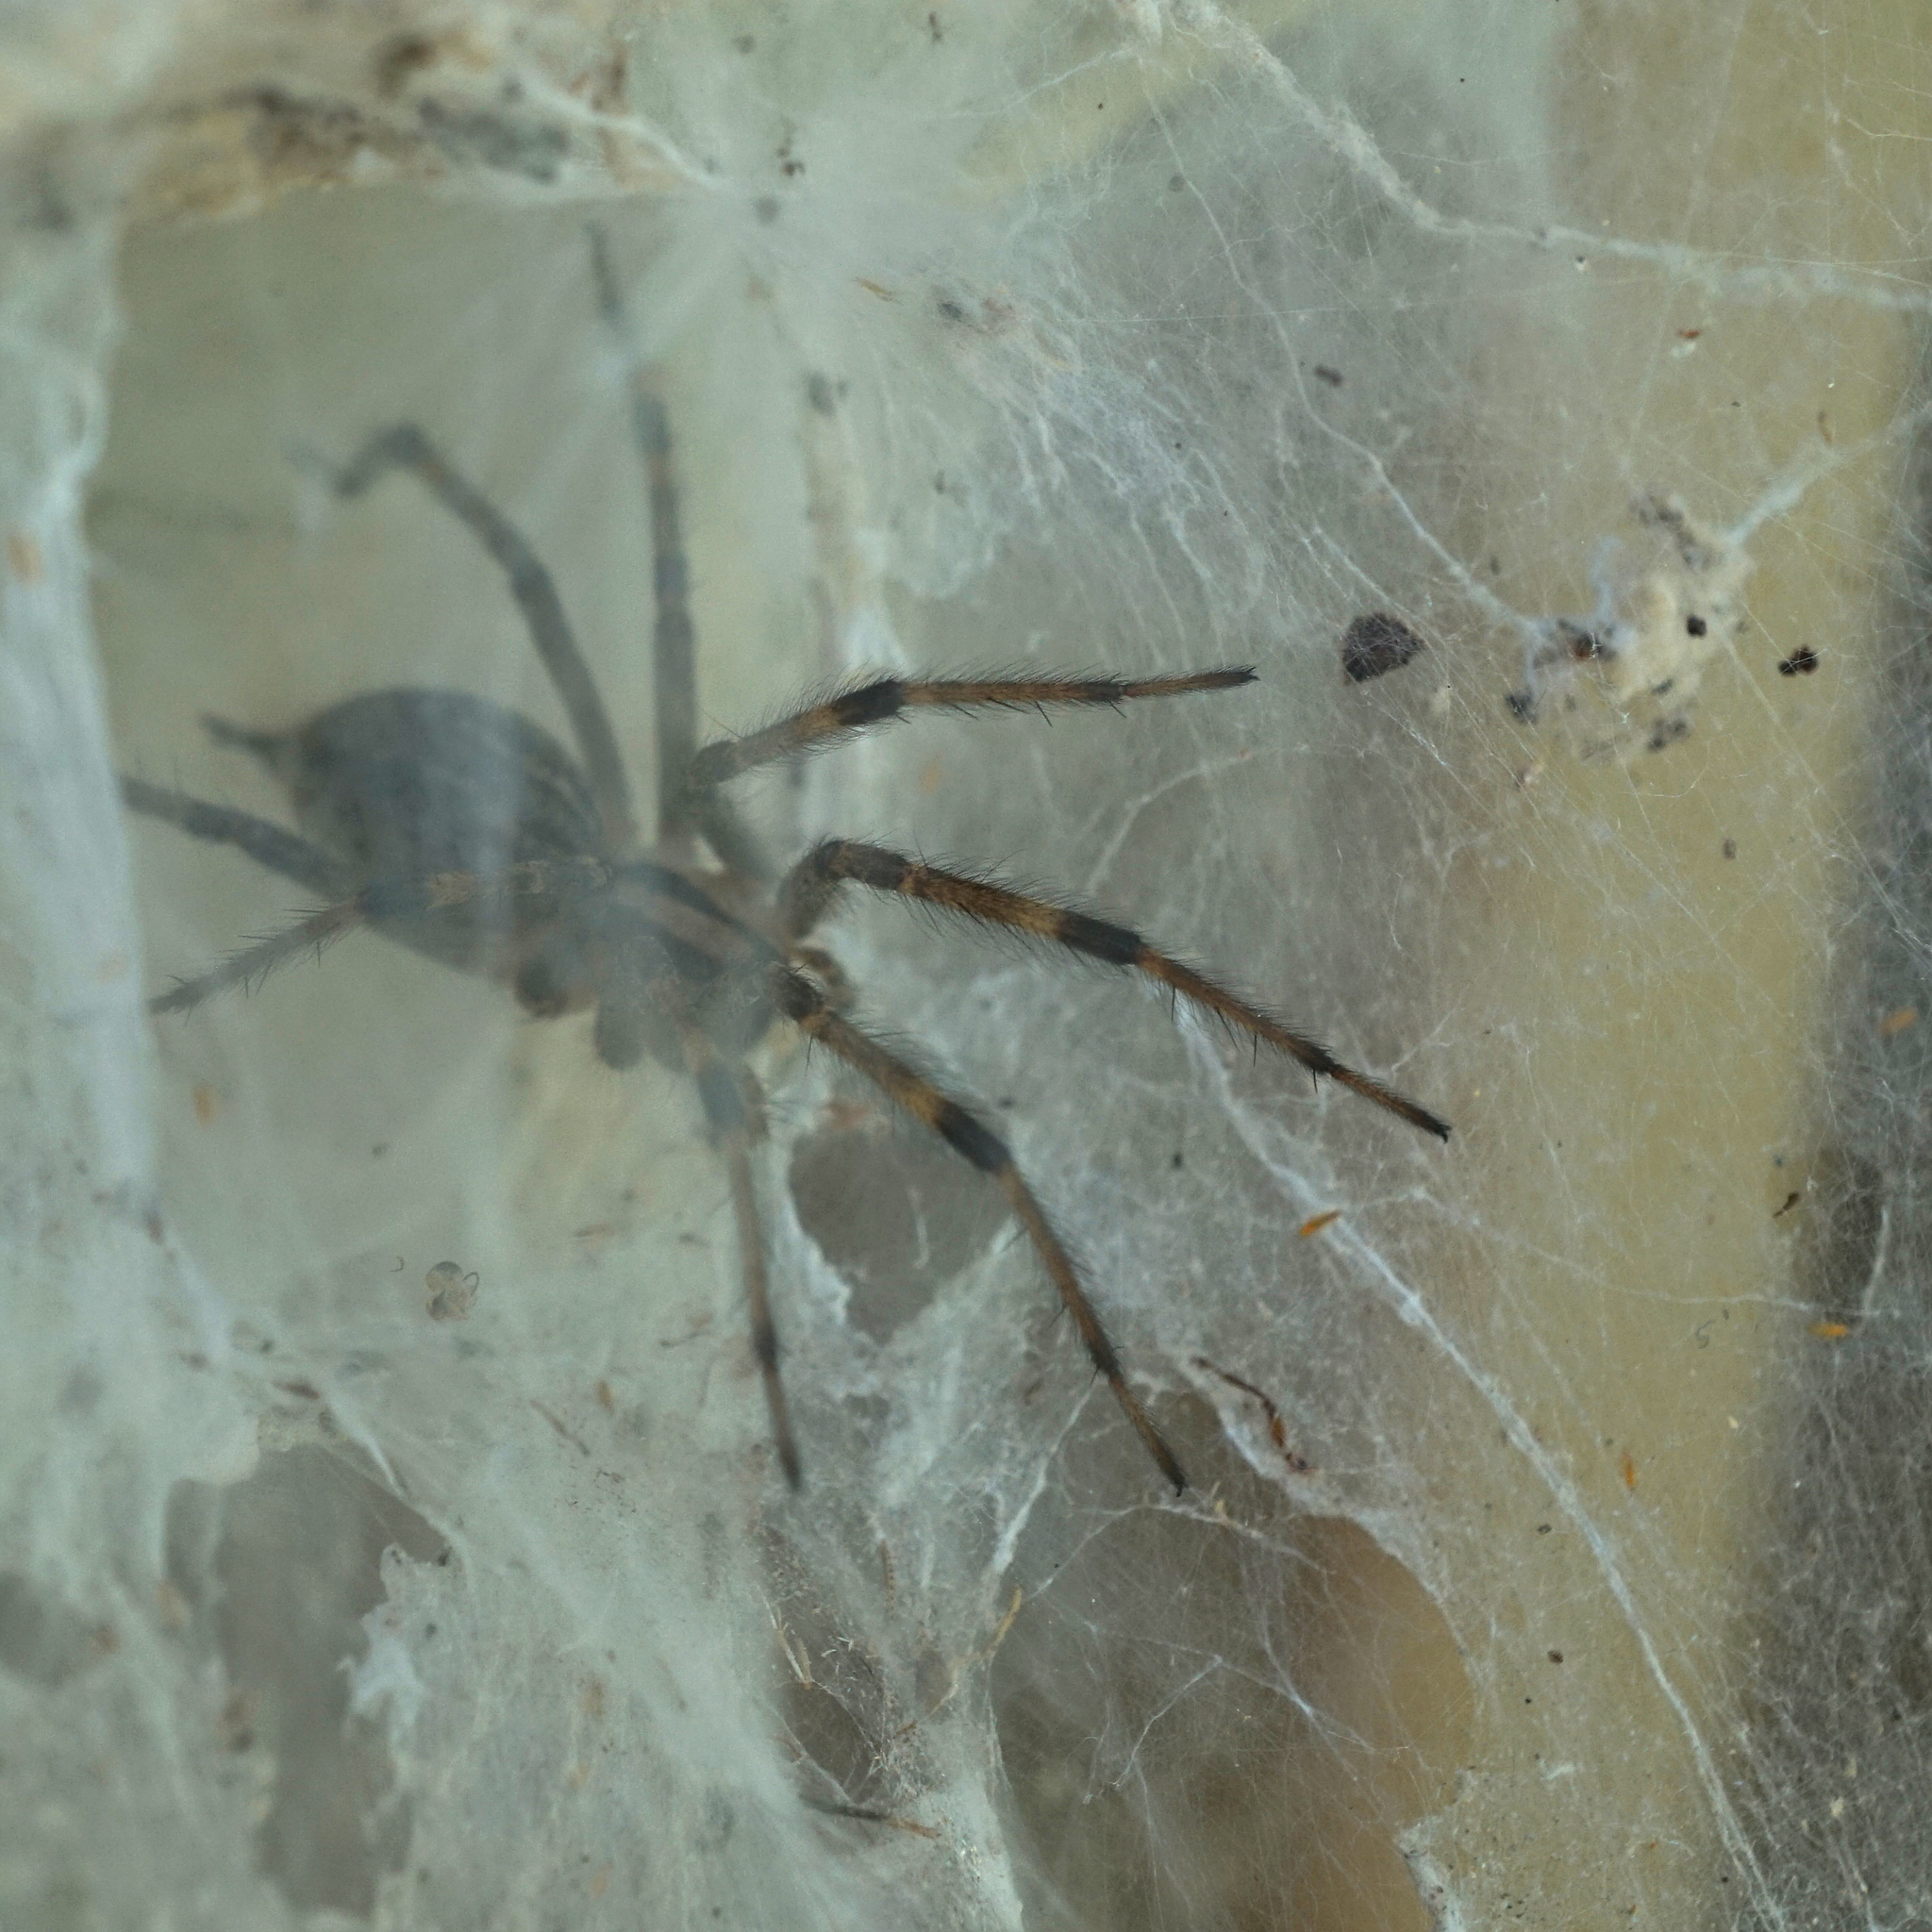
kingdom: Animalia
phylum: Arthropoda
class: Arachnida
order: Araneae
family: Agelenidae
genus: Agelenopsis
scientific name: Agelenopsis
